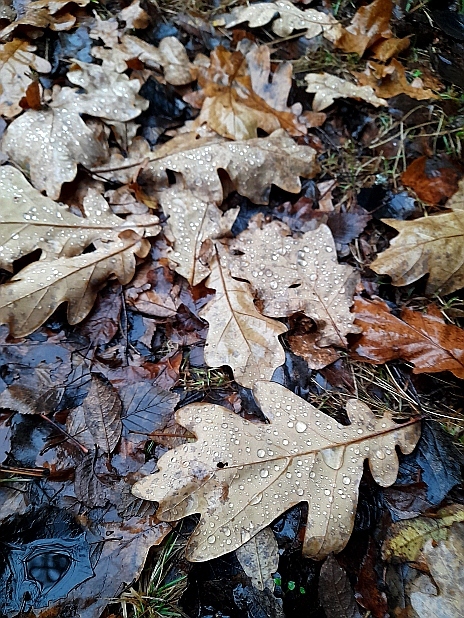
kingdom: Plantae
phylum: Tracheophyta
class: Magnoliopsida
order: Fagales
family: Fagaceae
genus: Quercus
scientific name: Quercus robur
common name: Pedunculate oak
